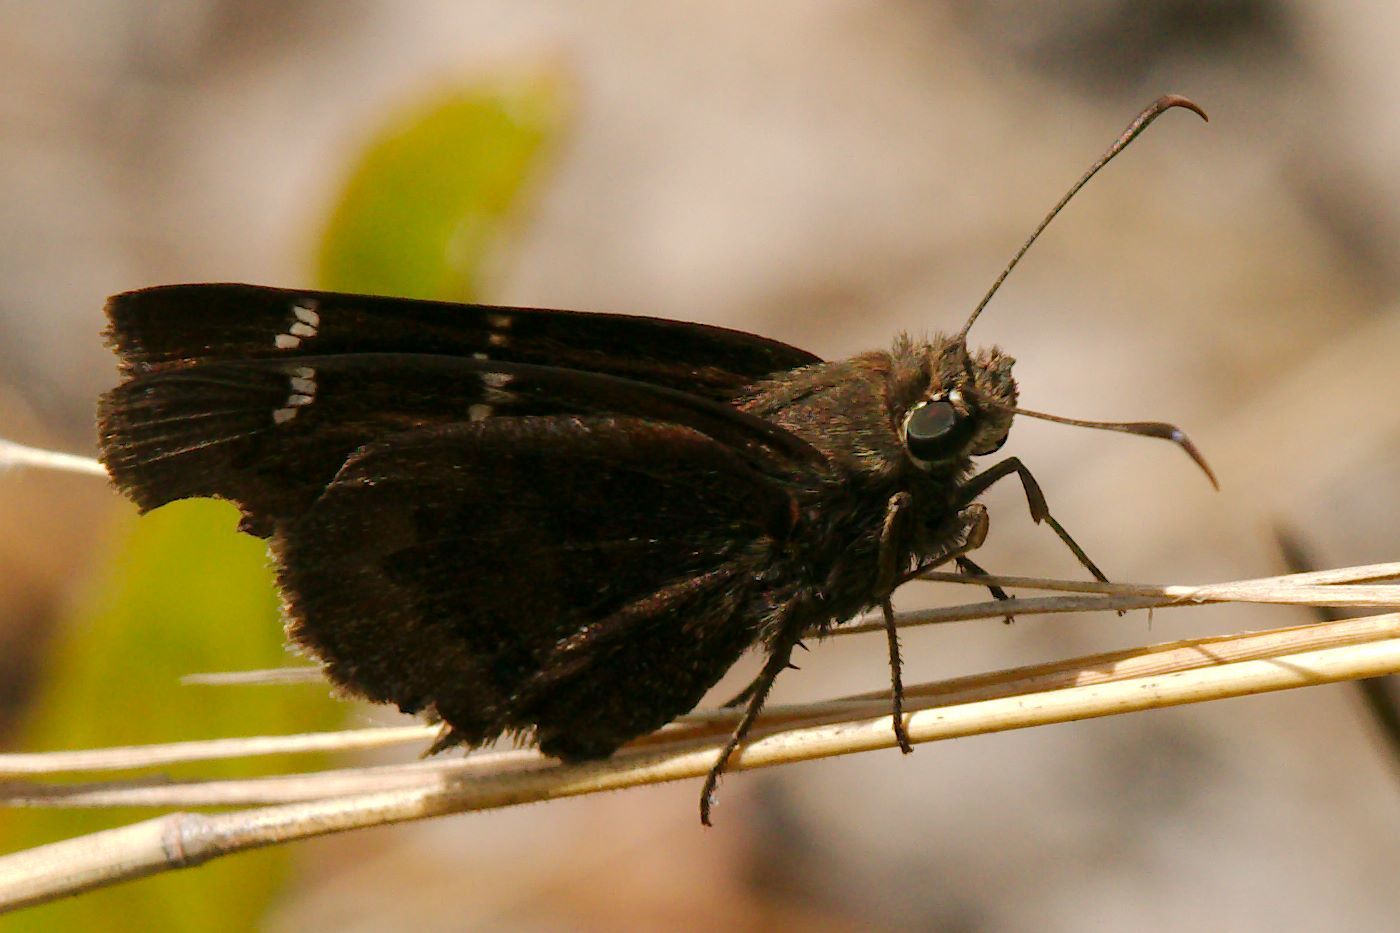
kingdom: Animalia
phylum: Arthropoda
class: Insecta
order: Lepidoptera
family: Hesperiidae
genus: Thorybes
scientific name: Thorybes mexicana
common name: Mexican cloudywing
